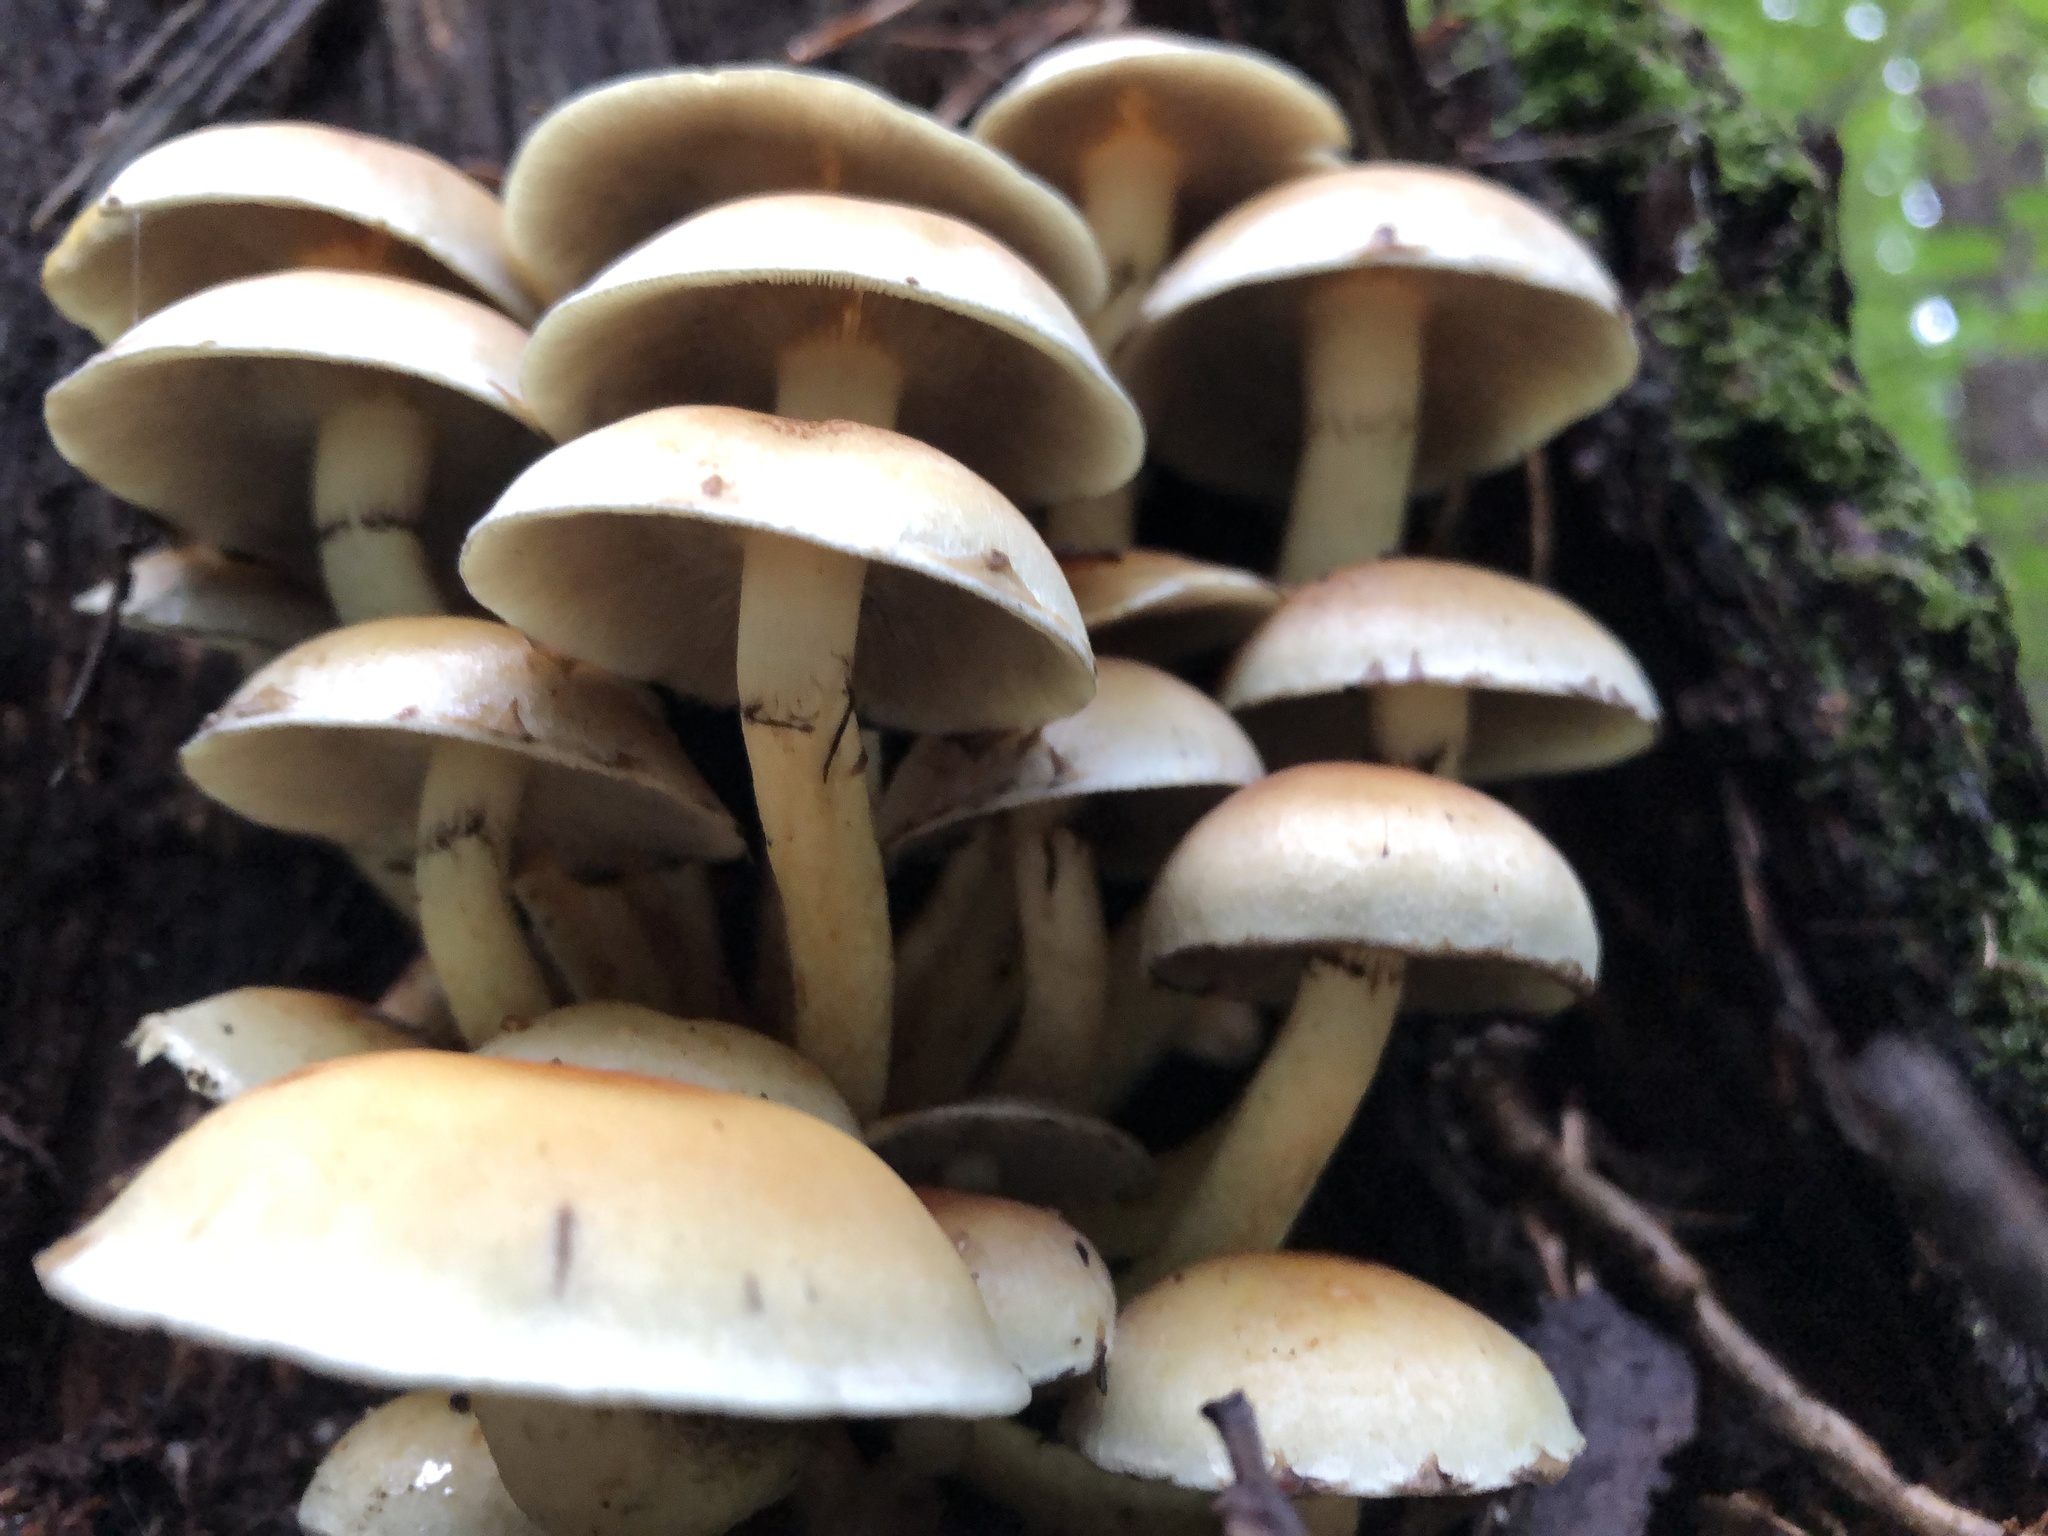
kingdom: Fungi
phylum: Basidiomycota
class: Agaricomycetes
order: Agaricales
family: Strophariaceae
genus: Hypholoma
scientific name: Hypholoma fasciculare
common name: Sulphur tuft
